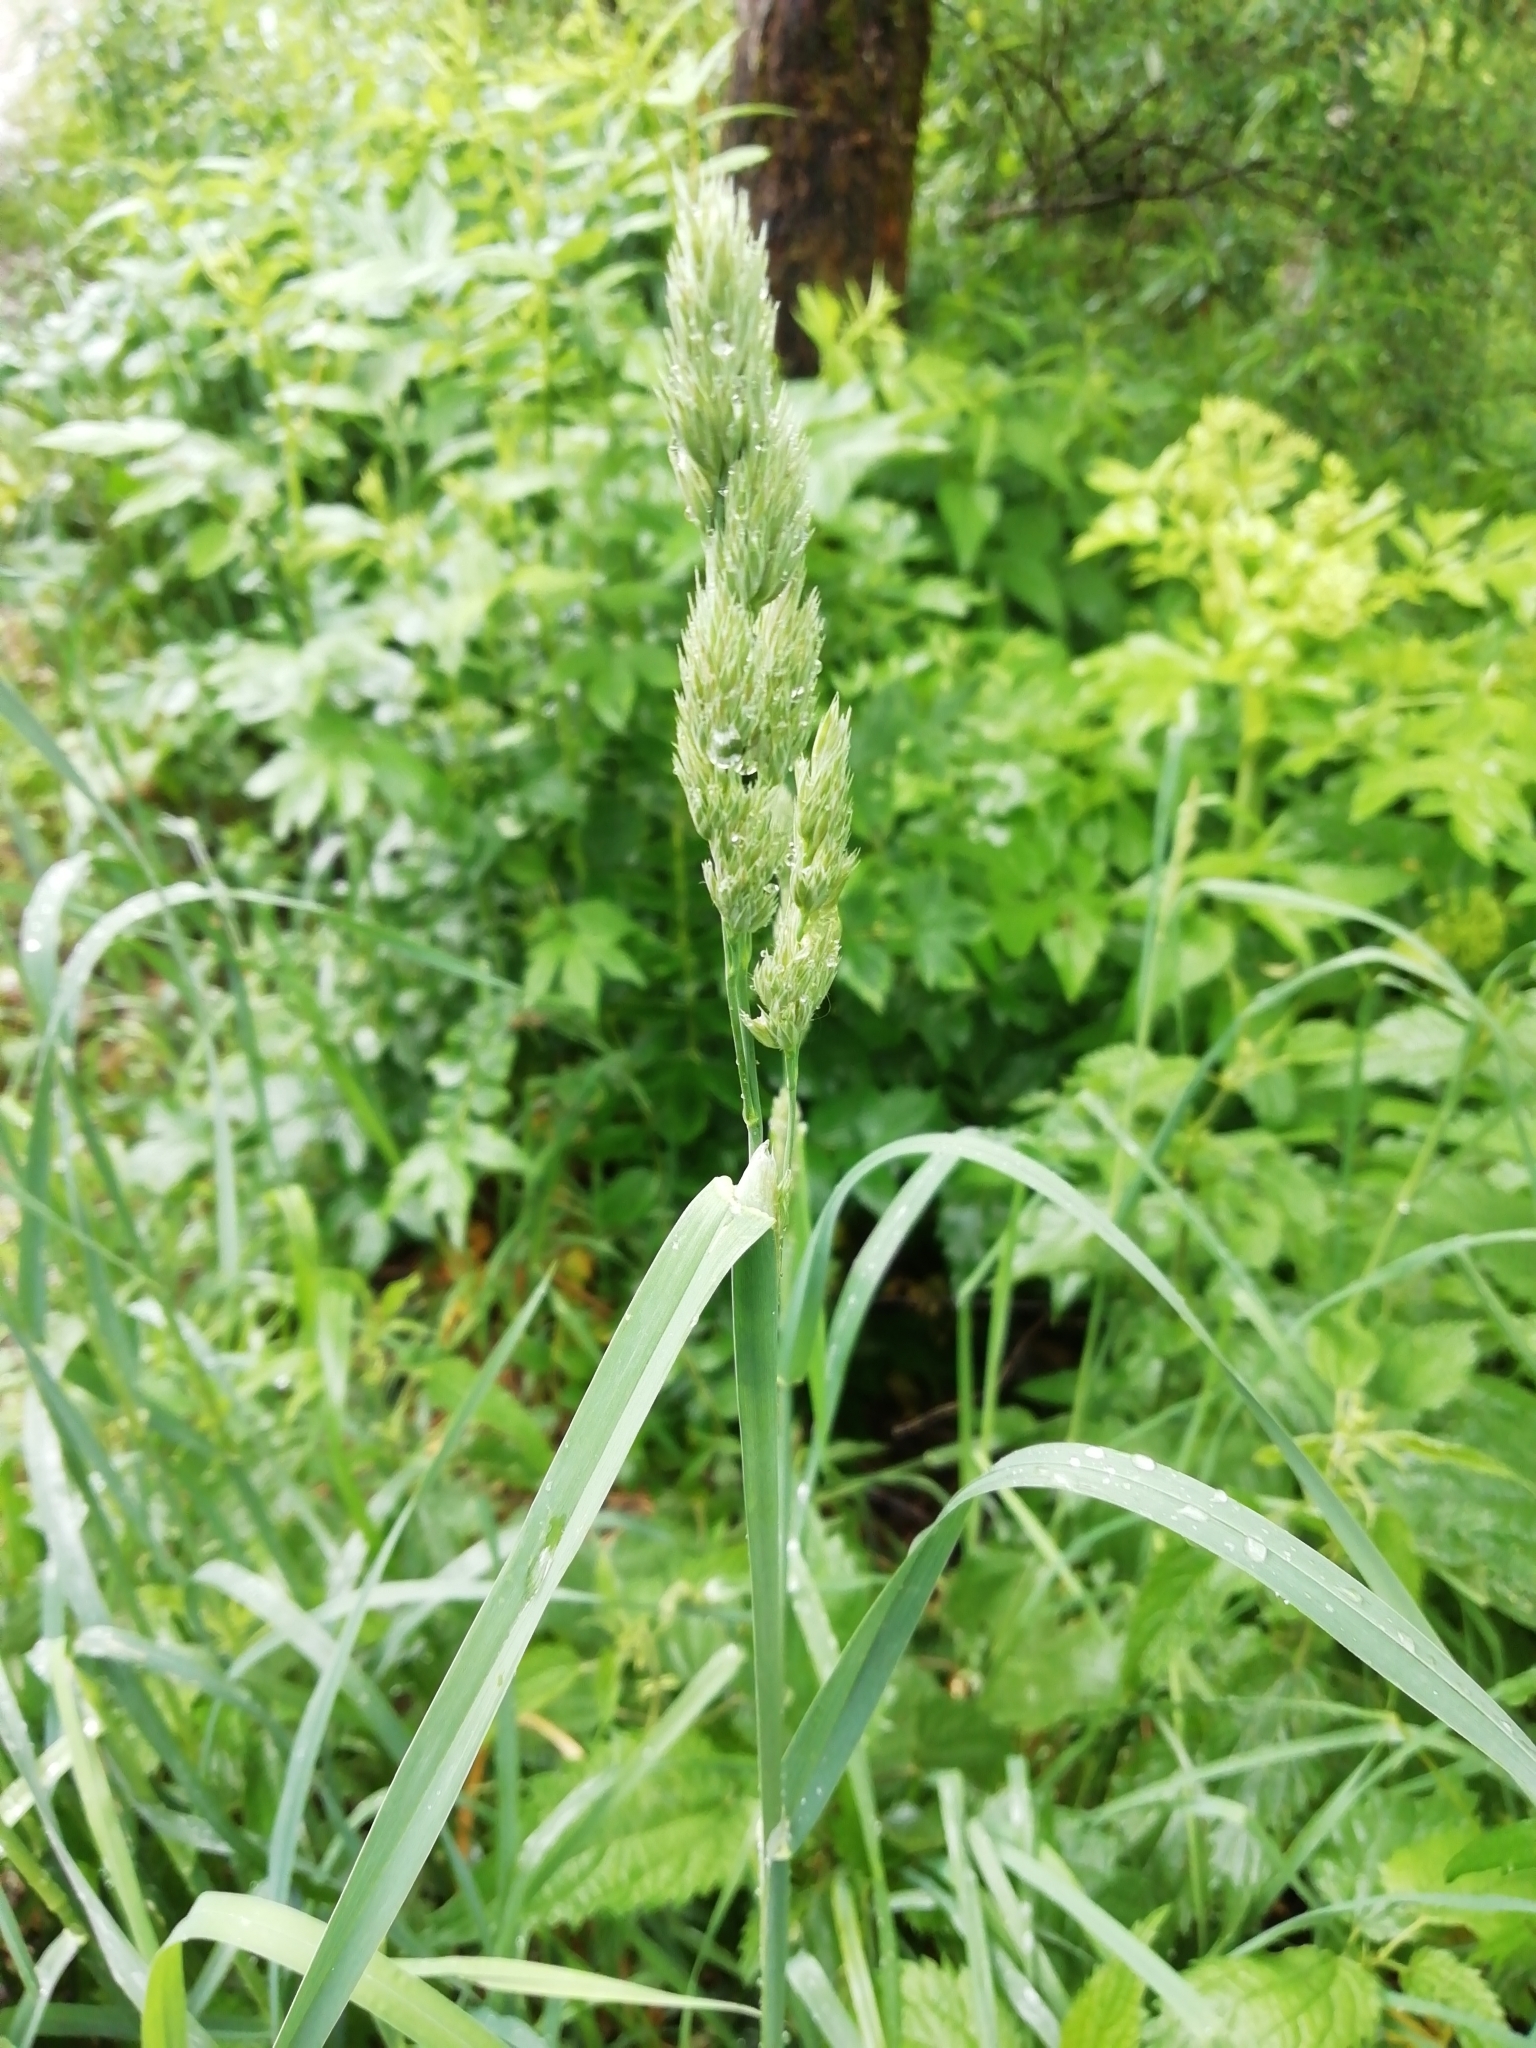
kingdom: Plantae
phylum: Tracheophyta
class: Liliopsida
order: Poales
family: Poaceae
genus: Dactylis
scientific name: Dactylis glomerata
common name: Orchardgrass
